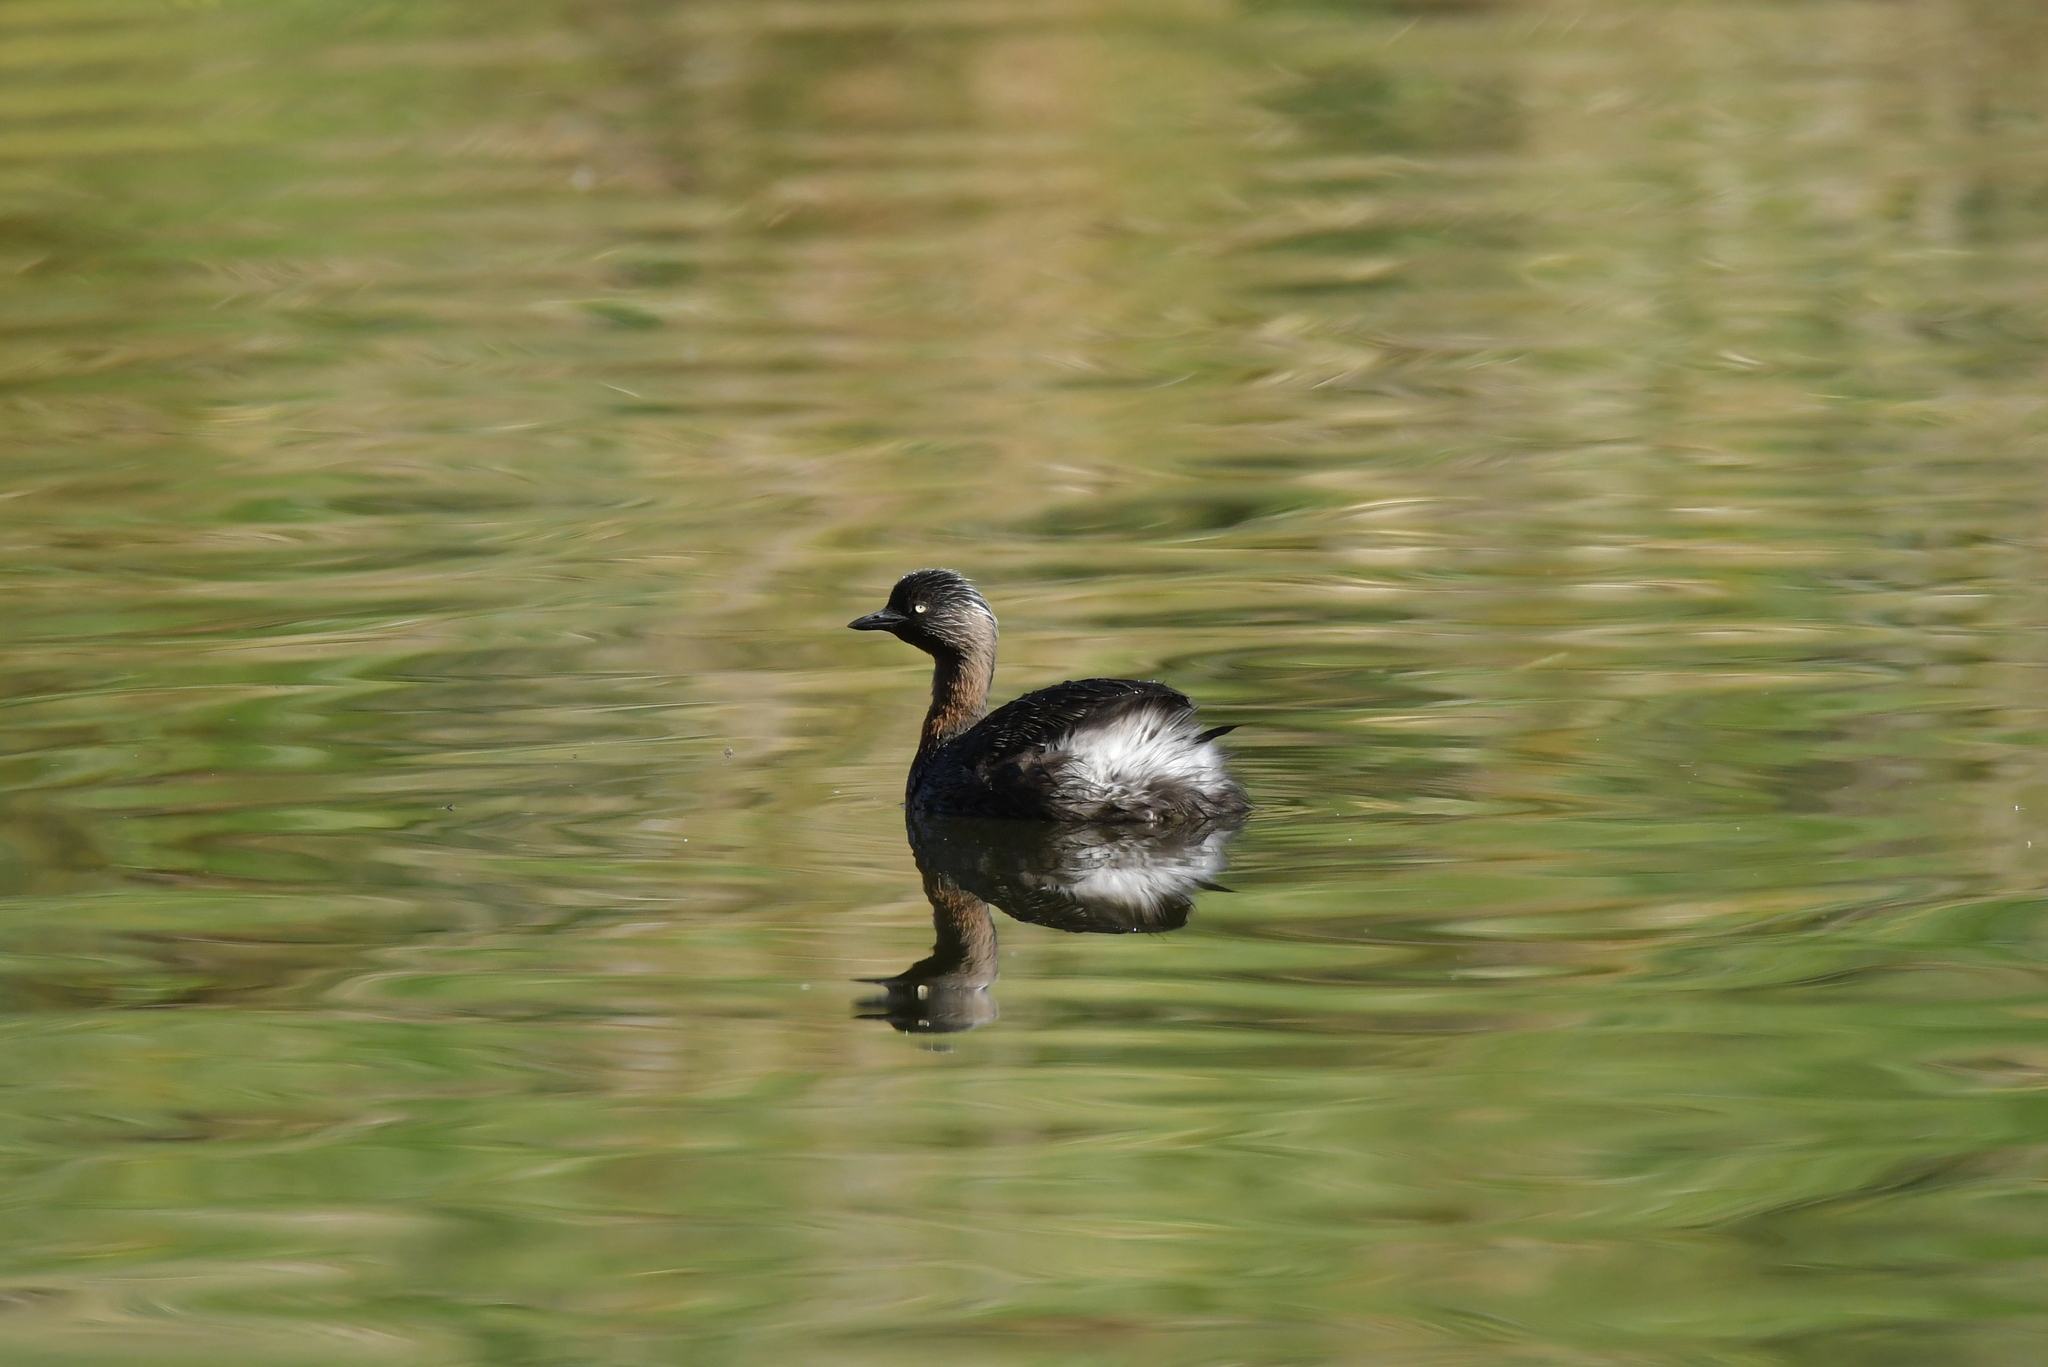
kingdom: Animalia
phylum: Chordata
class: Aves
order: Podicipediformes
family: Podicipedidae
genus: Poliocephalus
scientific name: Poliocephalus rufopectus
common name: New zealand grebe
